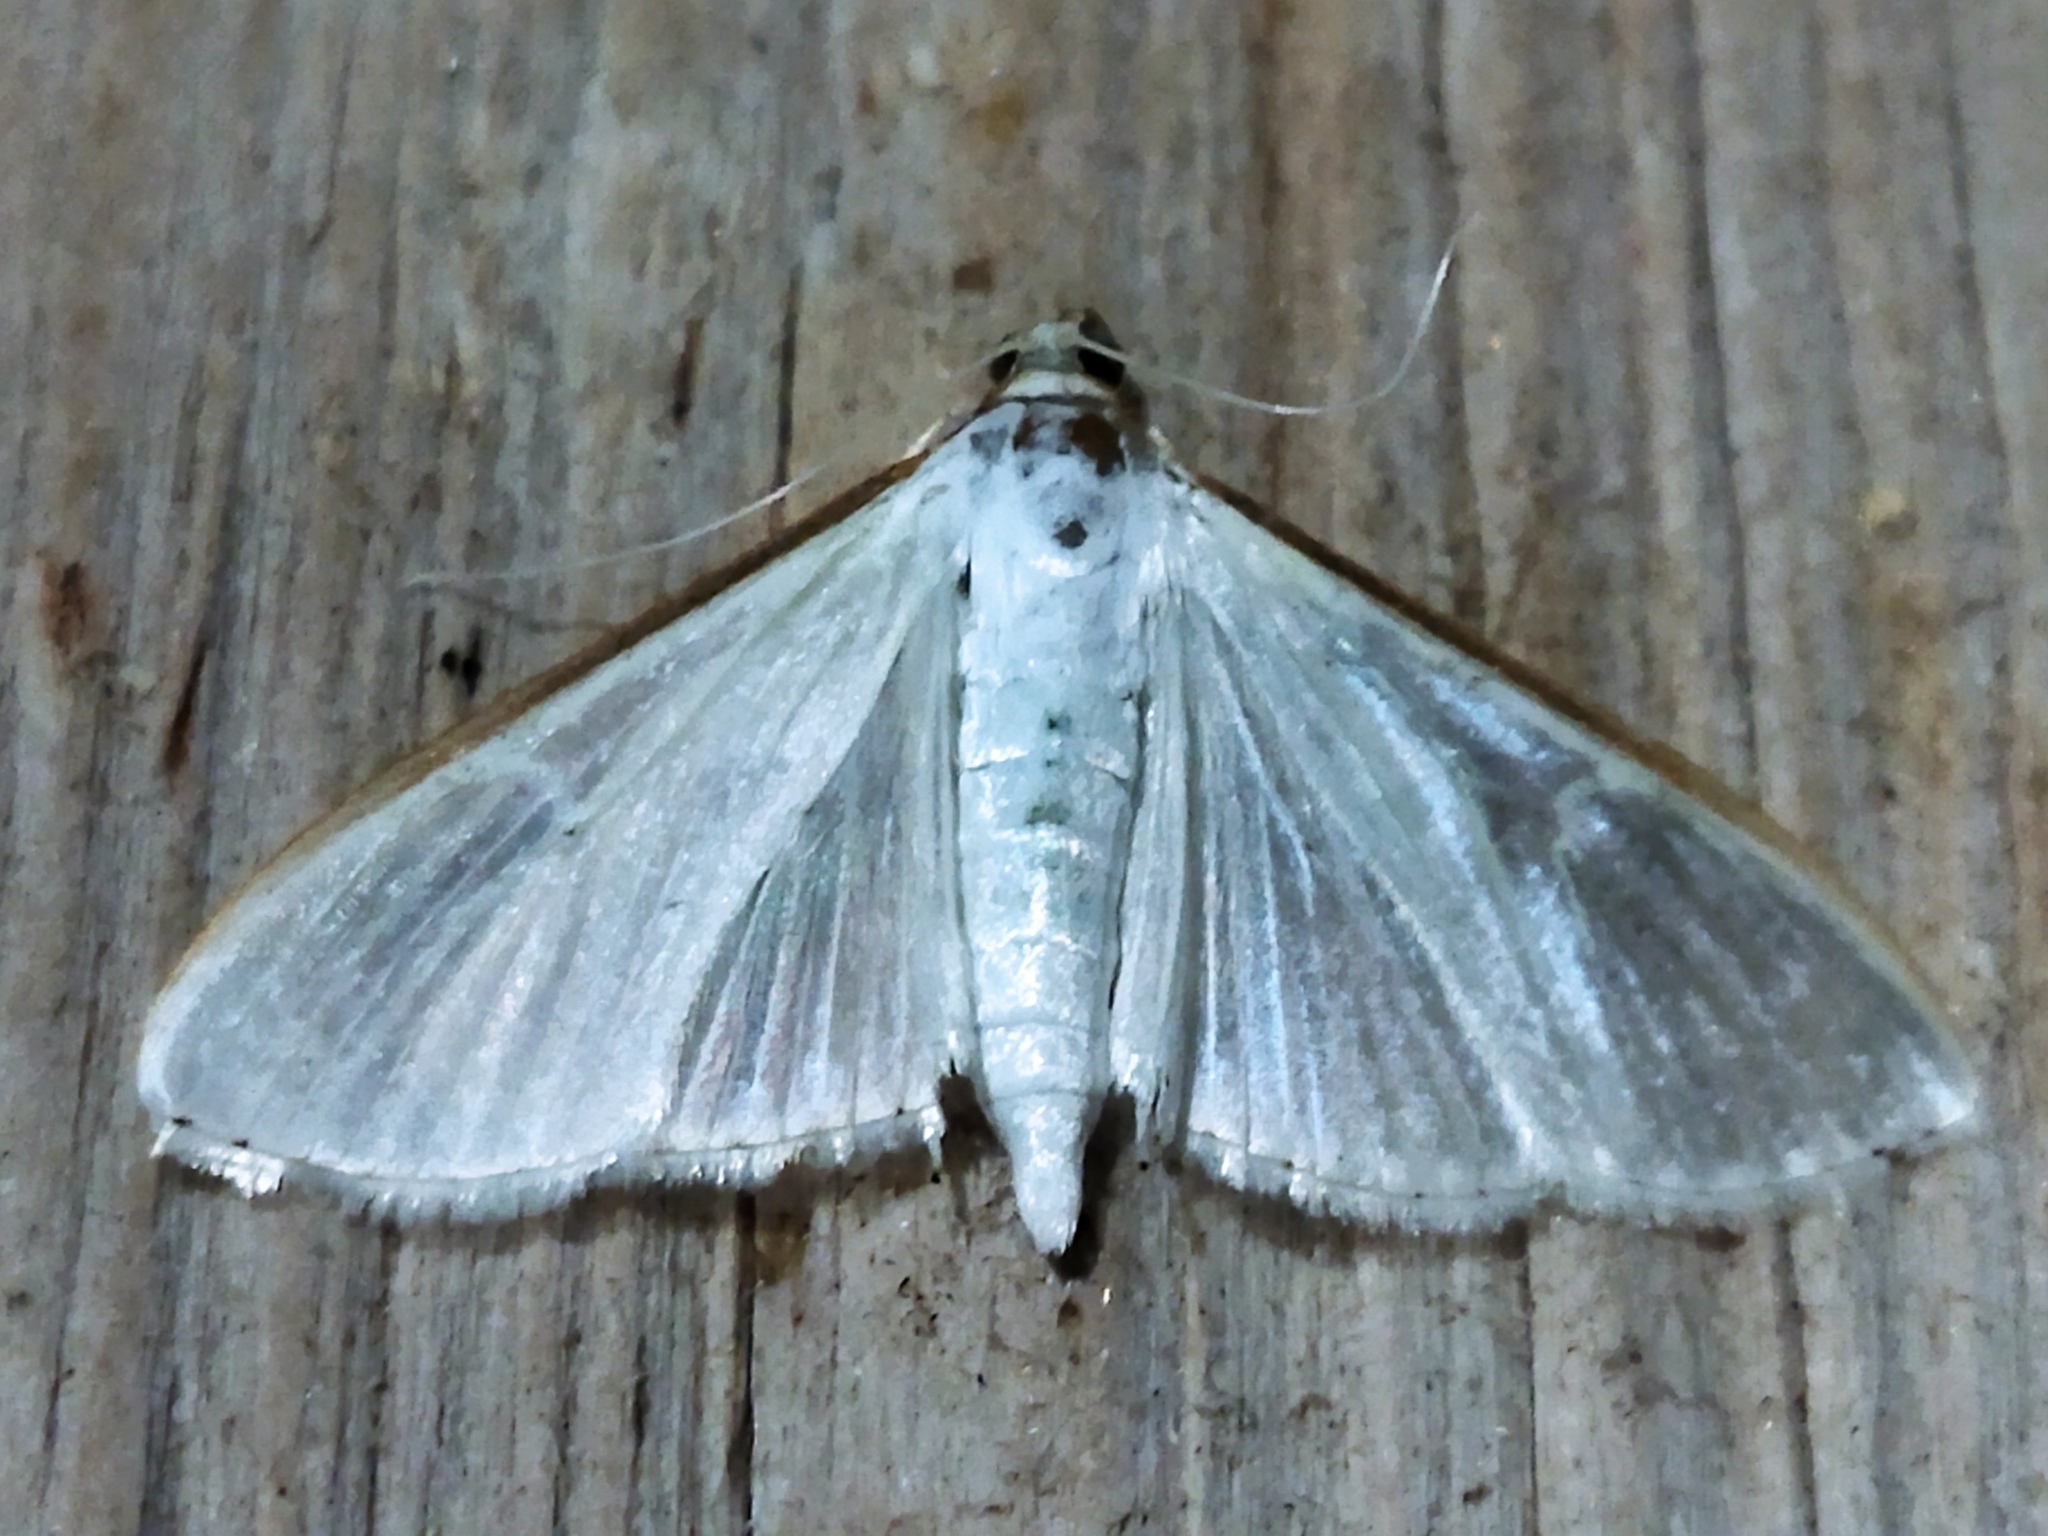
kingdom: Animalia
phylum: Arthropoda
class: Insecta
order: Lepidoptera
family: Crambidae
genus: Palpita
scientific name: Palpita vitrealis
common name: Olive-tree pearl
